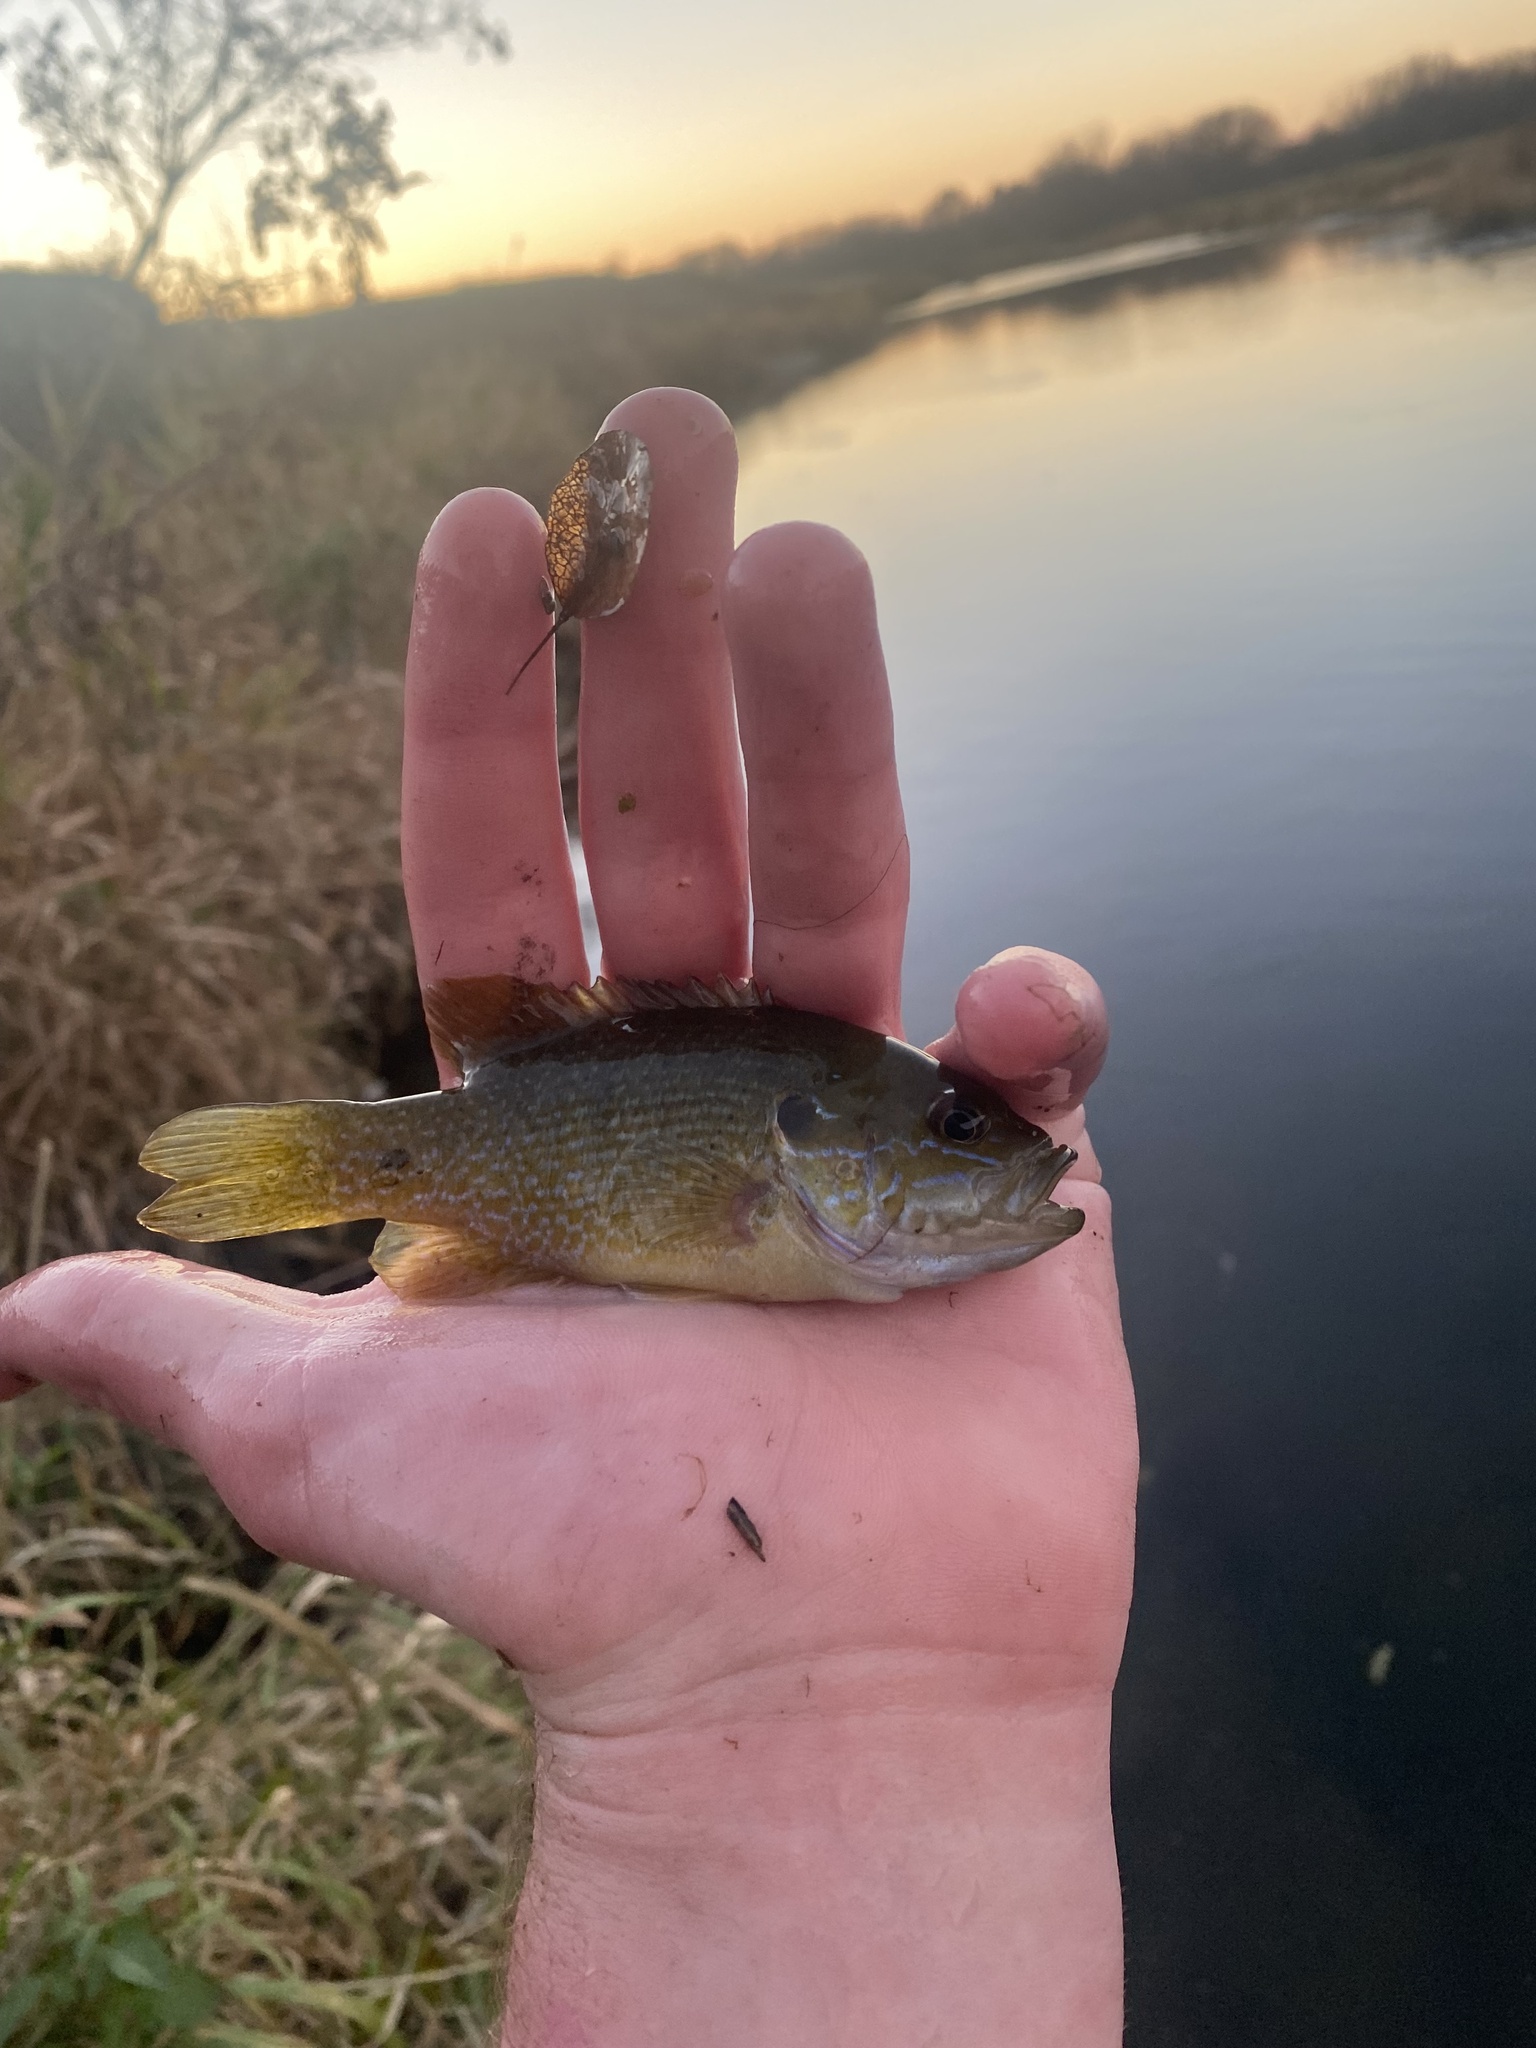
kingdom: Animalia
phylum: Chordata
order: Perciformes
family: Centrarchidae
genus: Lepomis
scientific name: Lepomis cyanellus
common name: Green sunfish
